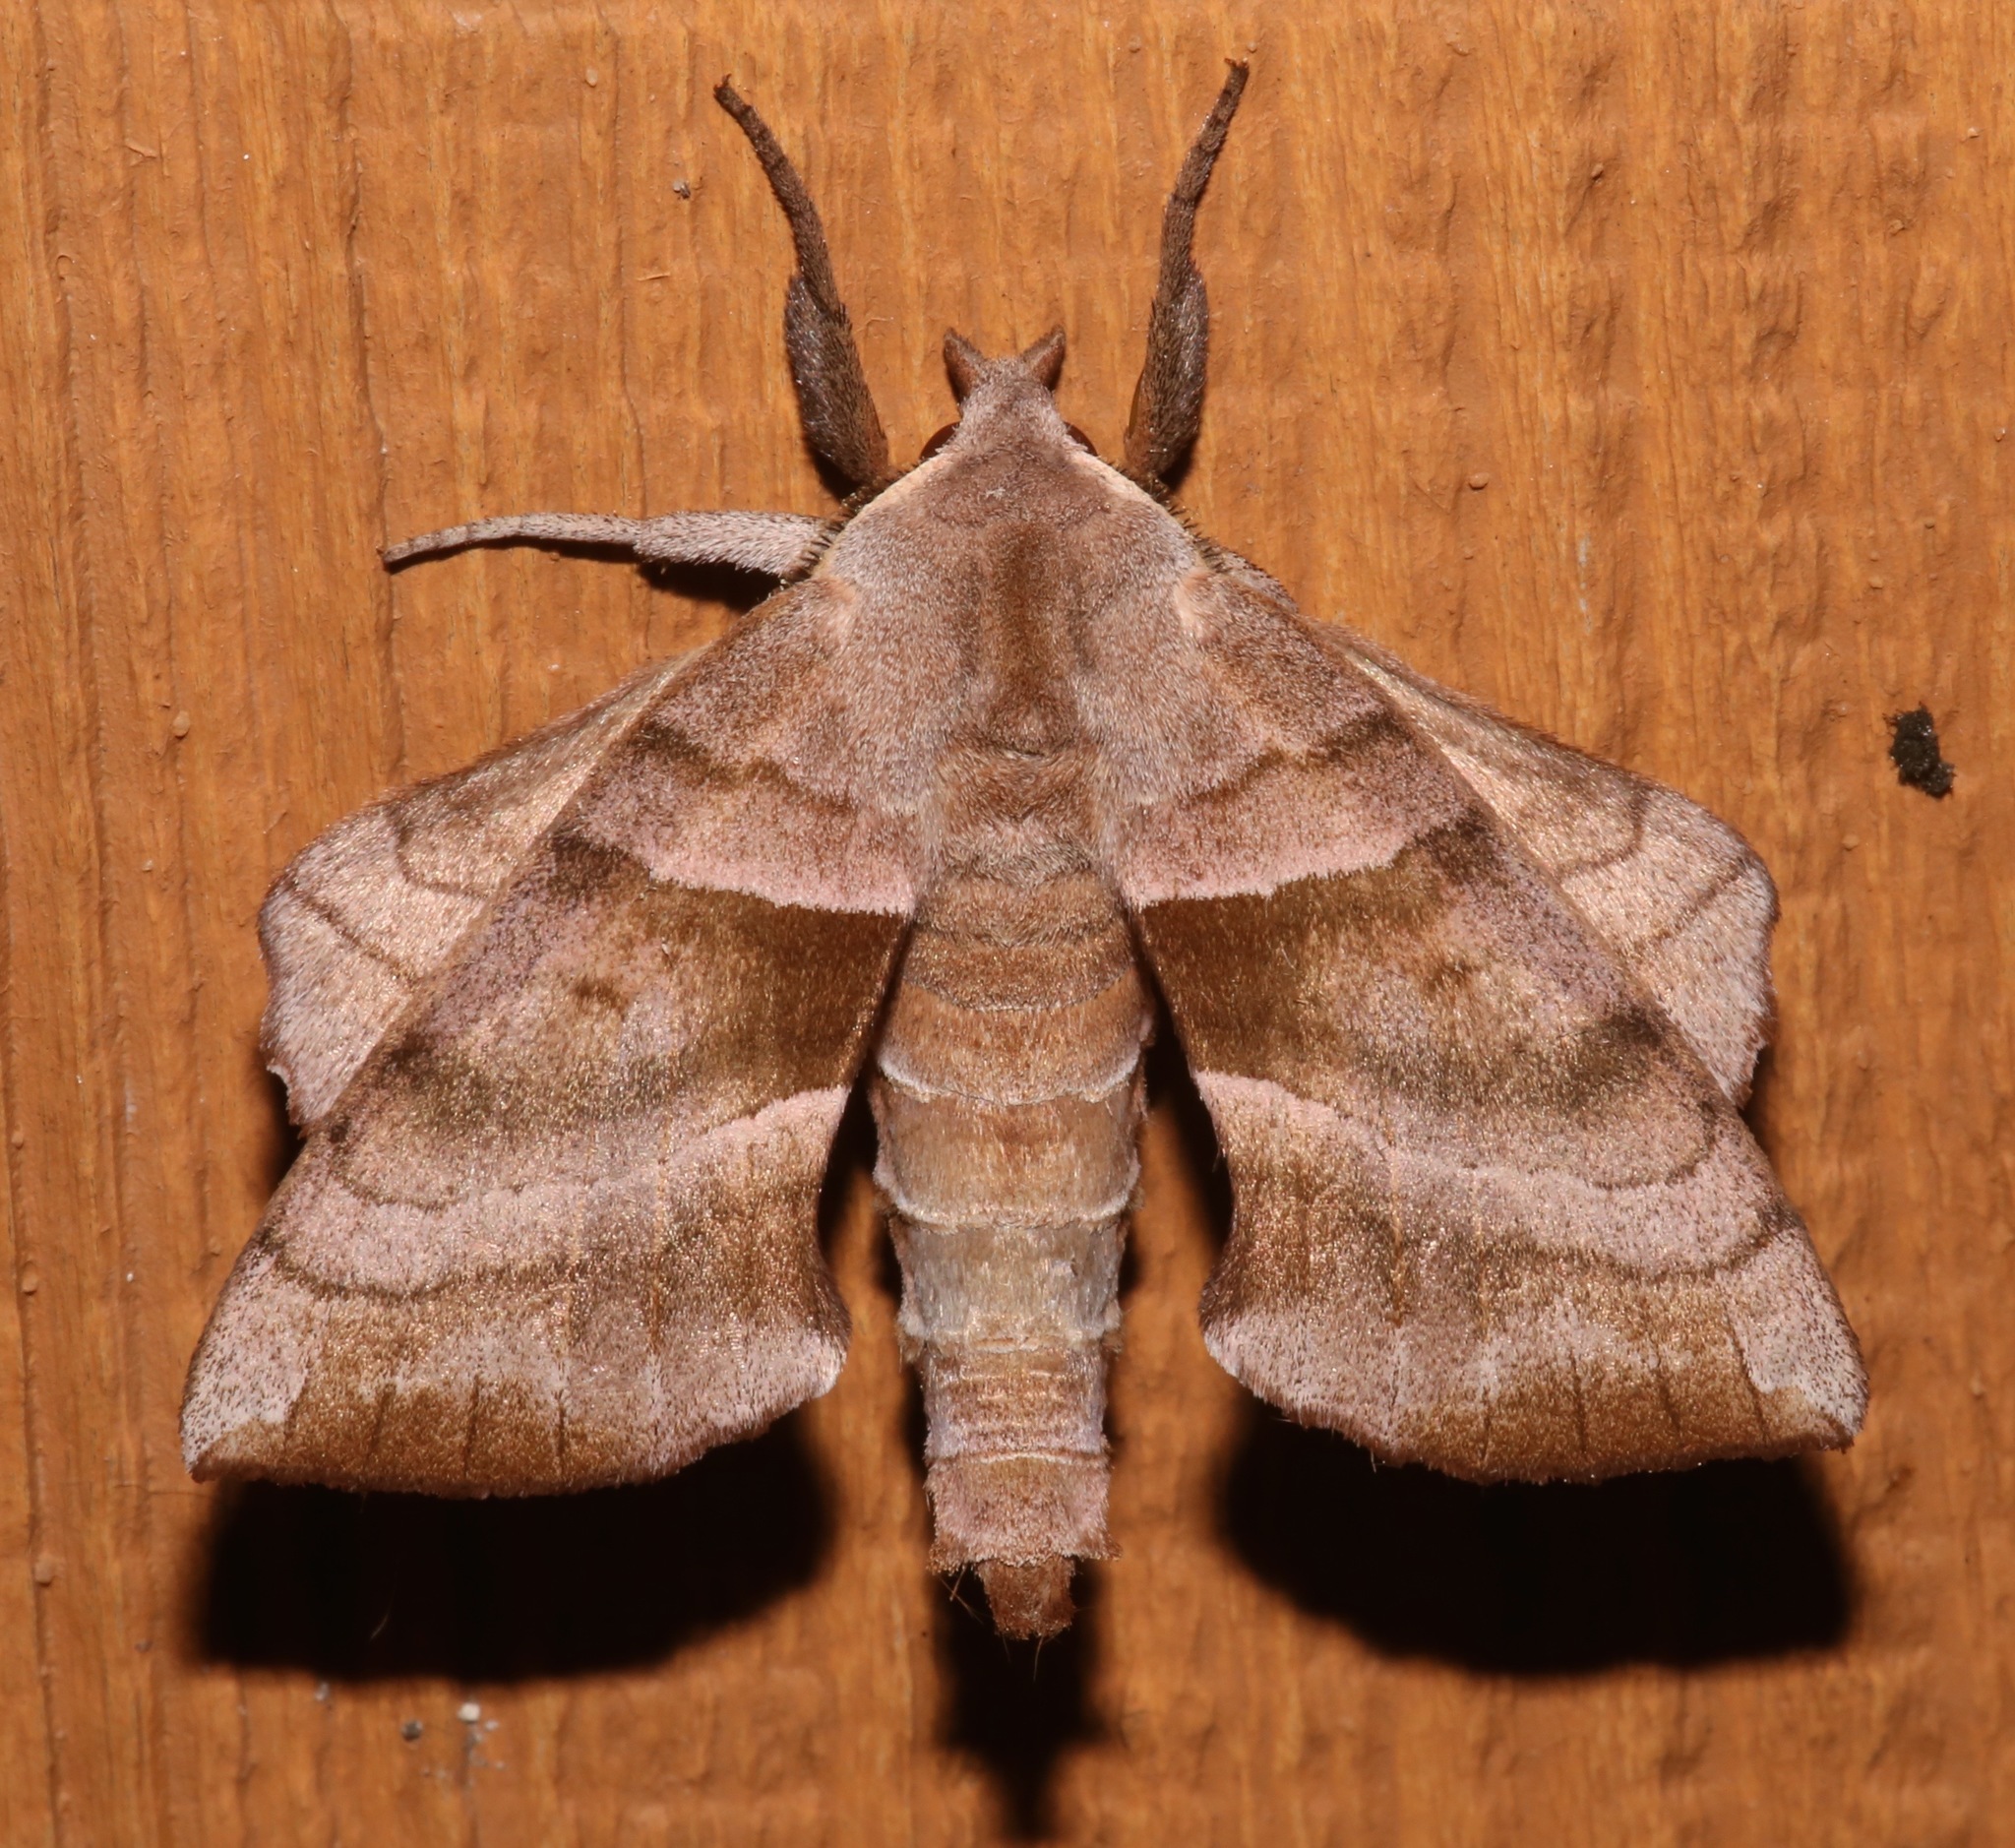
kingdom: Animalia
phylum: Arthropoda
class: Insecta
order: Lepidoptera
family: Sphingidae
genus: Amorpha
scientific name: Amorpha juglandis
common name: Walnut sphinx
